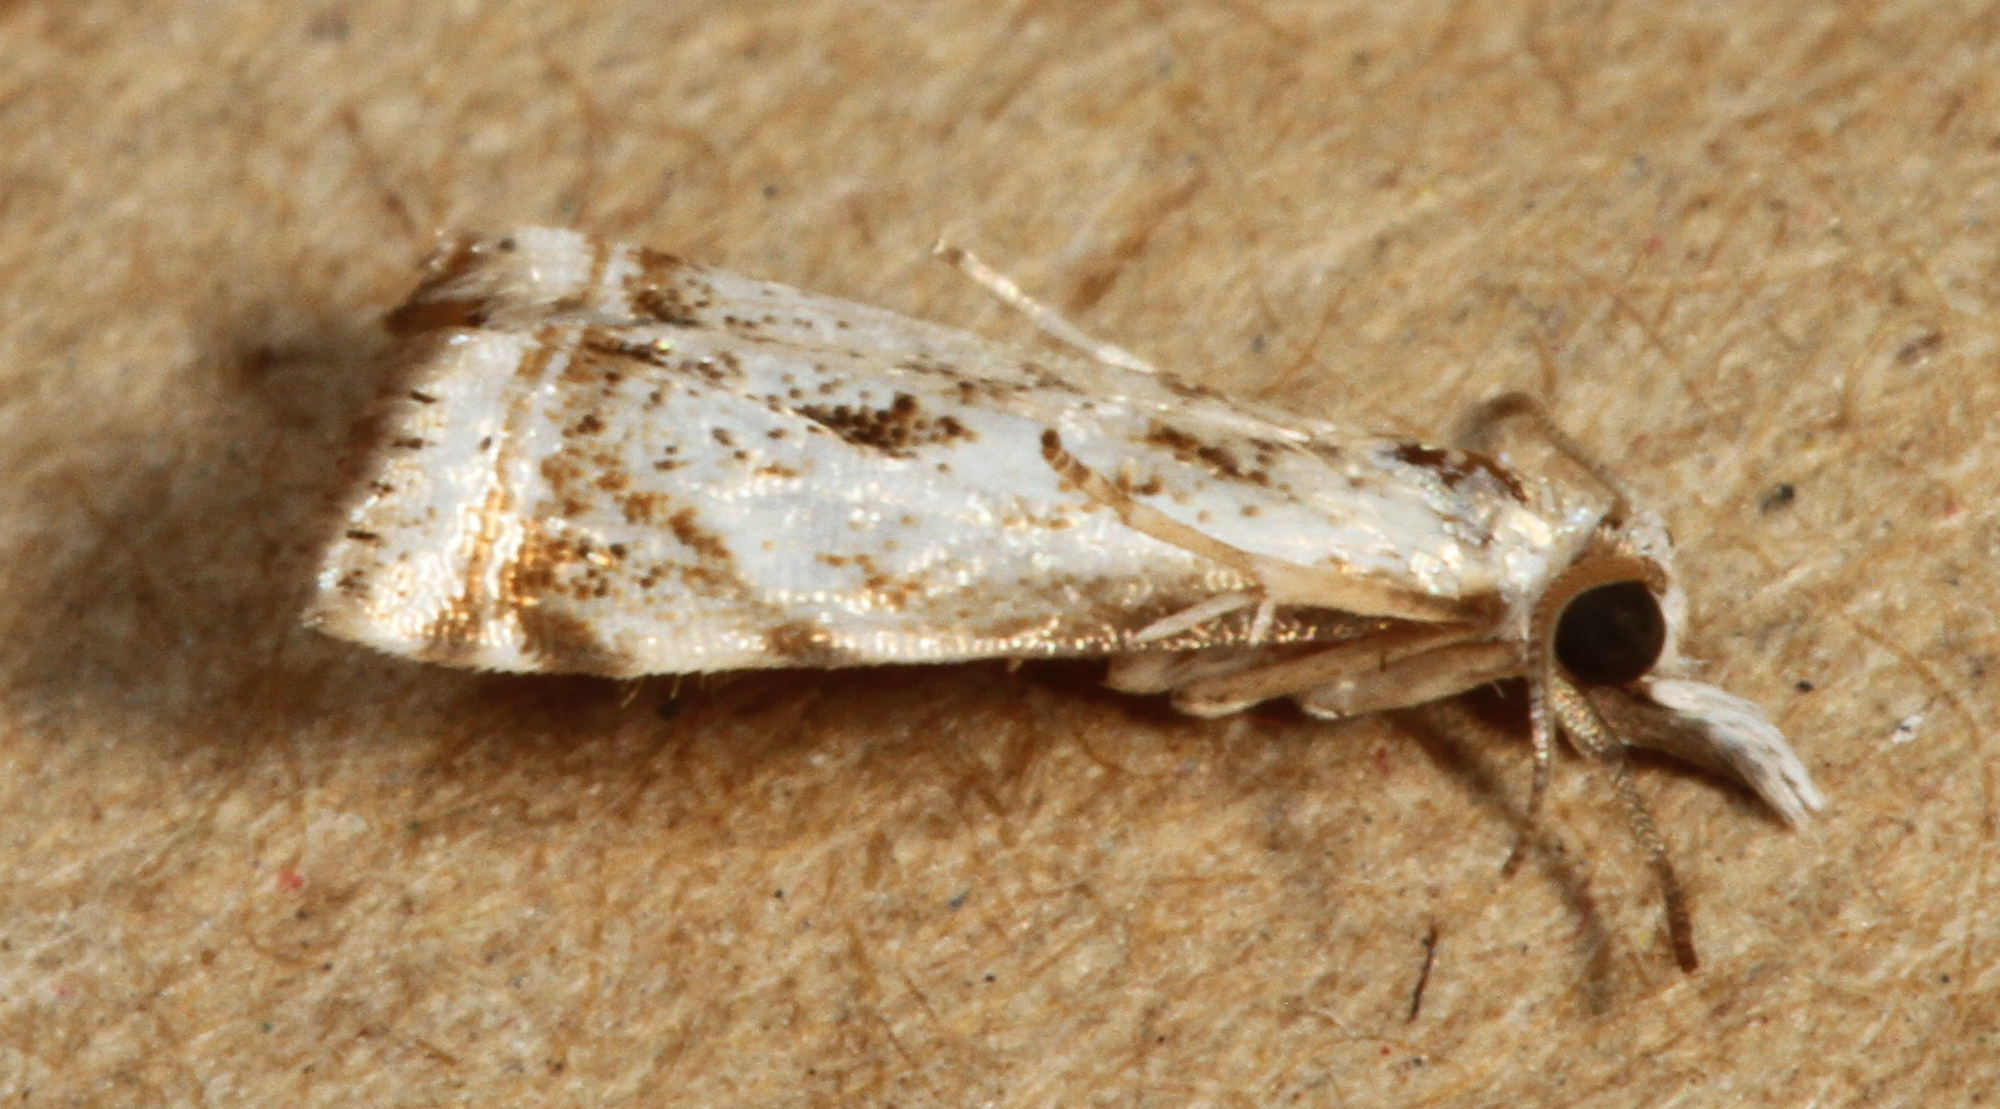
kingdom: Animalia
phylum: Arthropoda
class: Insecta
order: Lepidoptera
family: Crambidae
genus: Microcrambus
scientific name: Microcrambus elegans
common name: Elegant grass-veneer
